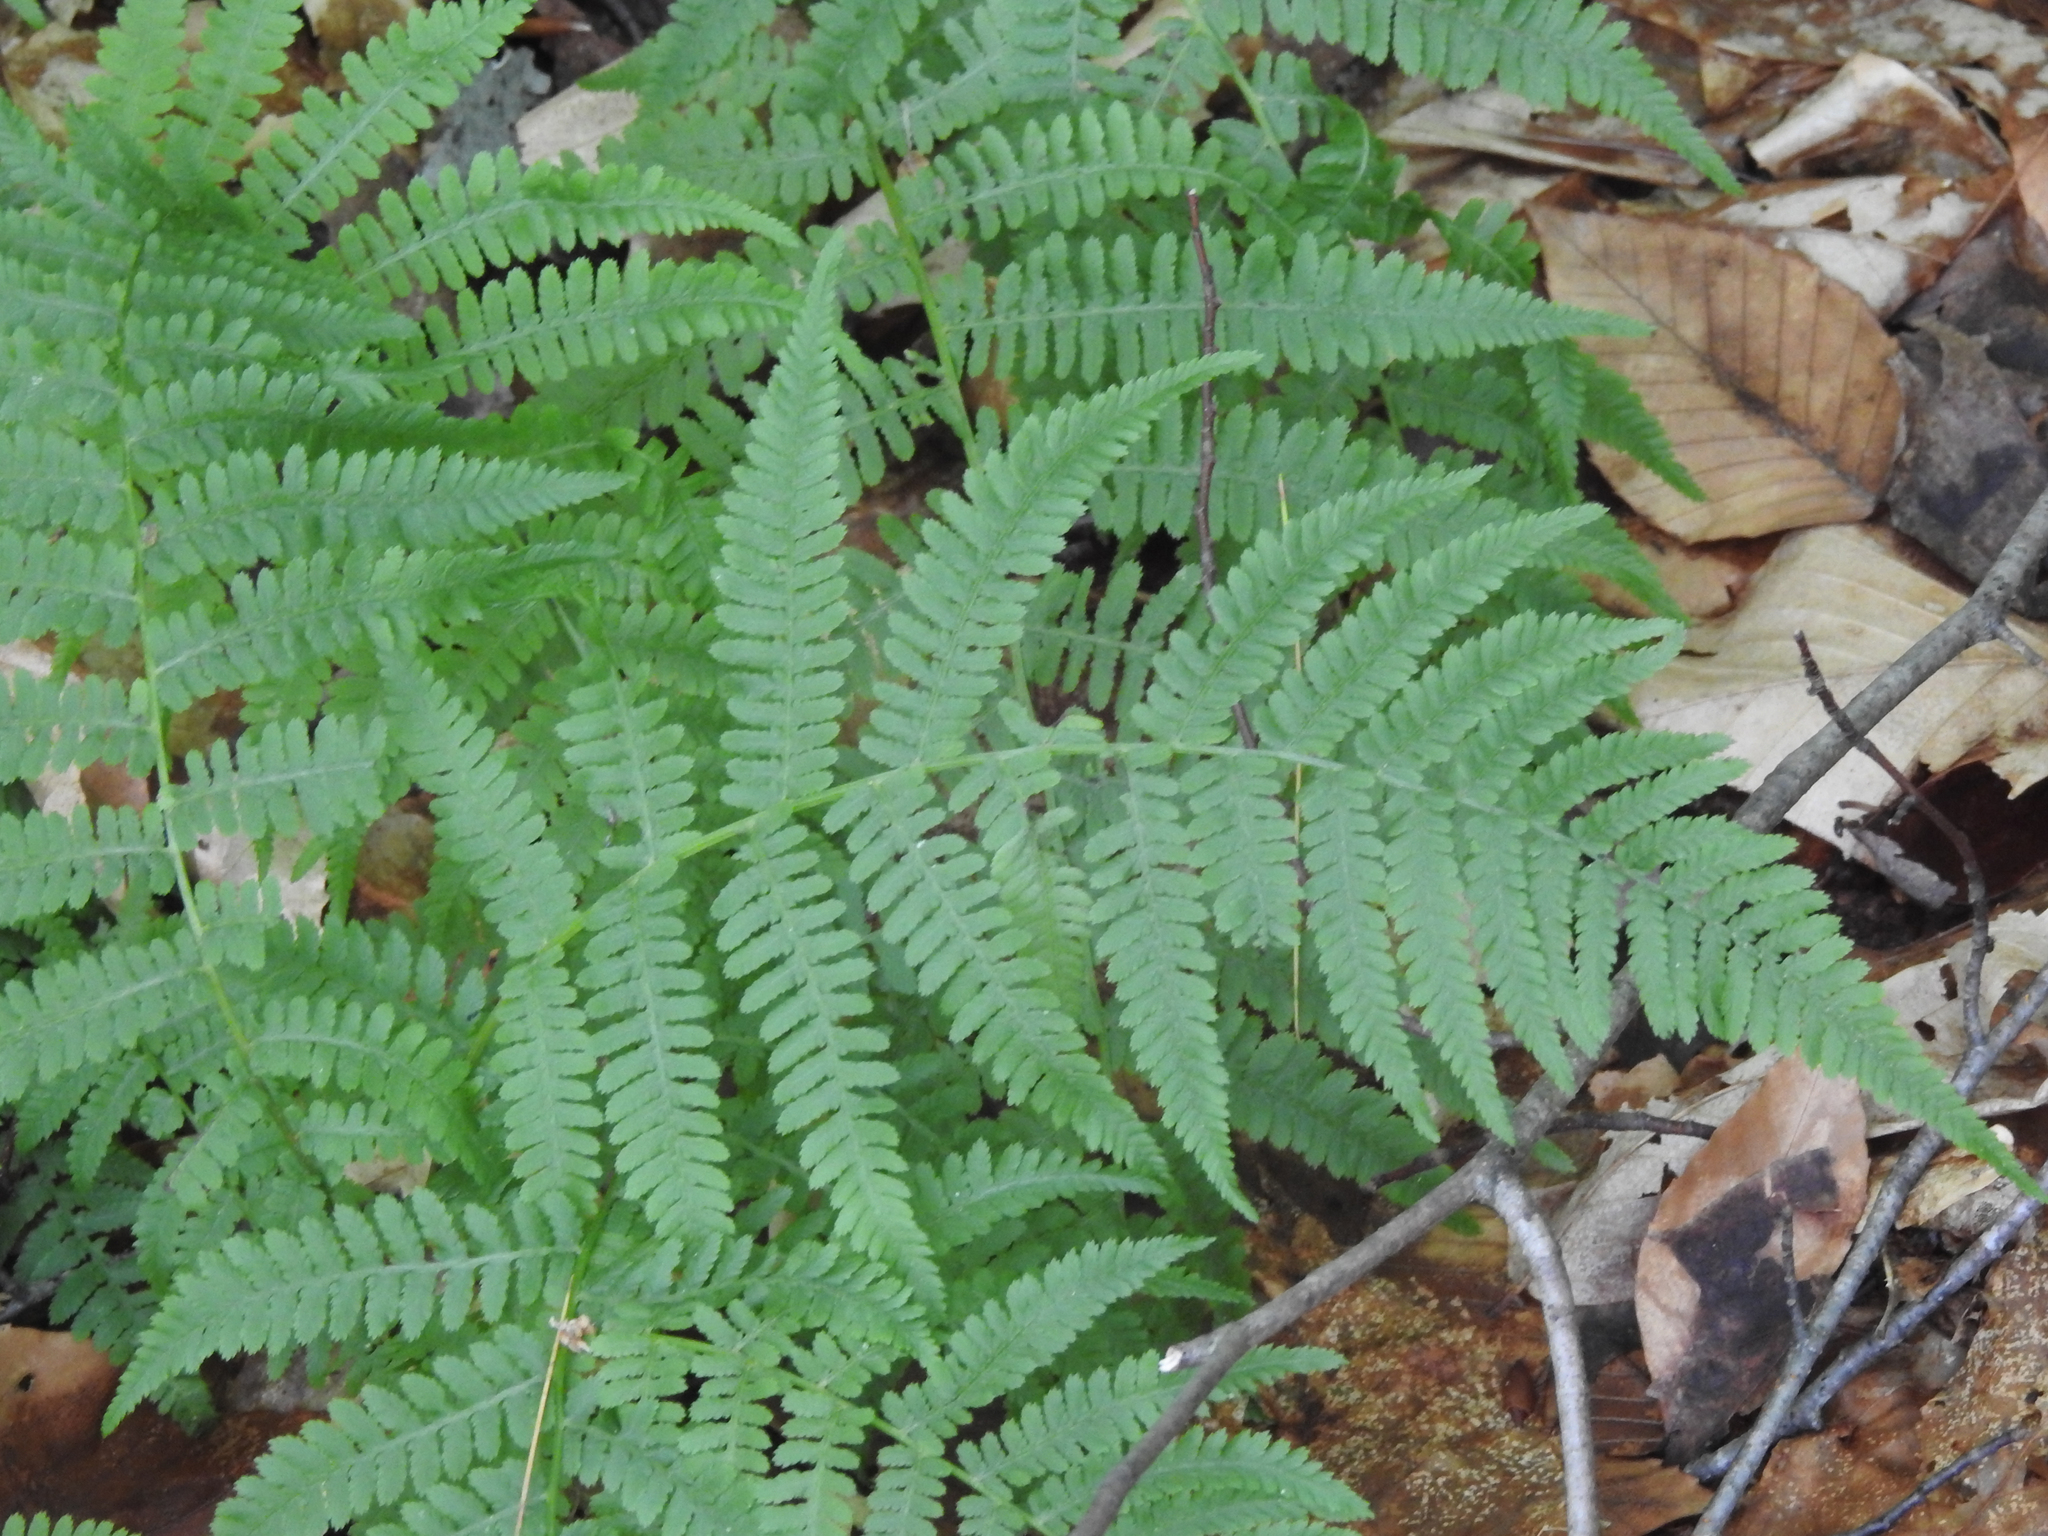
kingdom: Plantae
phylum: Tracheophyta
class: Polypodiopsida
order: Polypodiales
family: Athyriaceae
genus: Athyrium
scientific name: Athyrium angustum
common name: Northern lady fern
